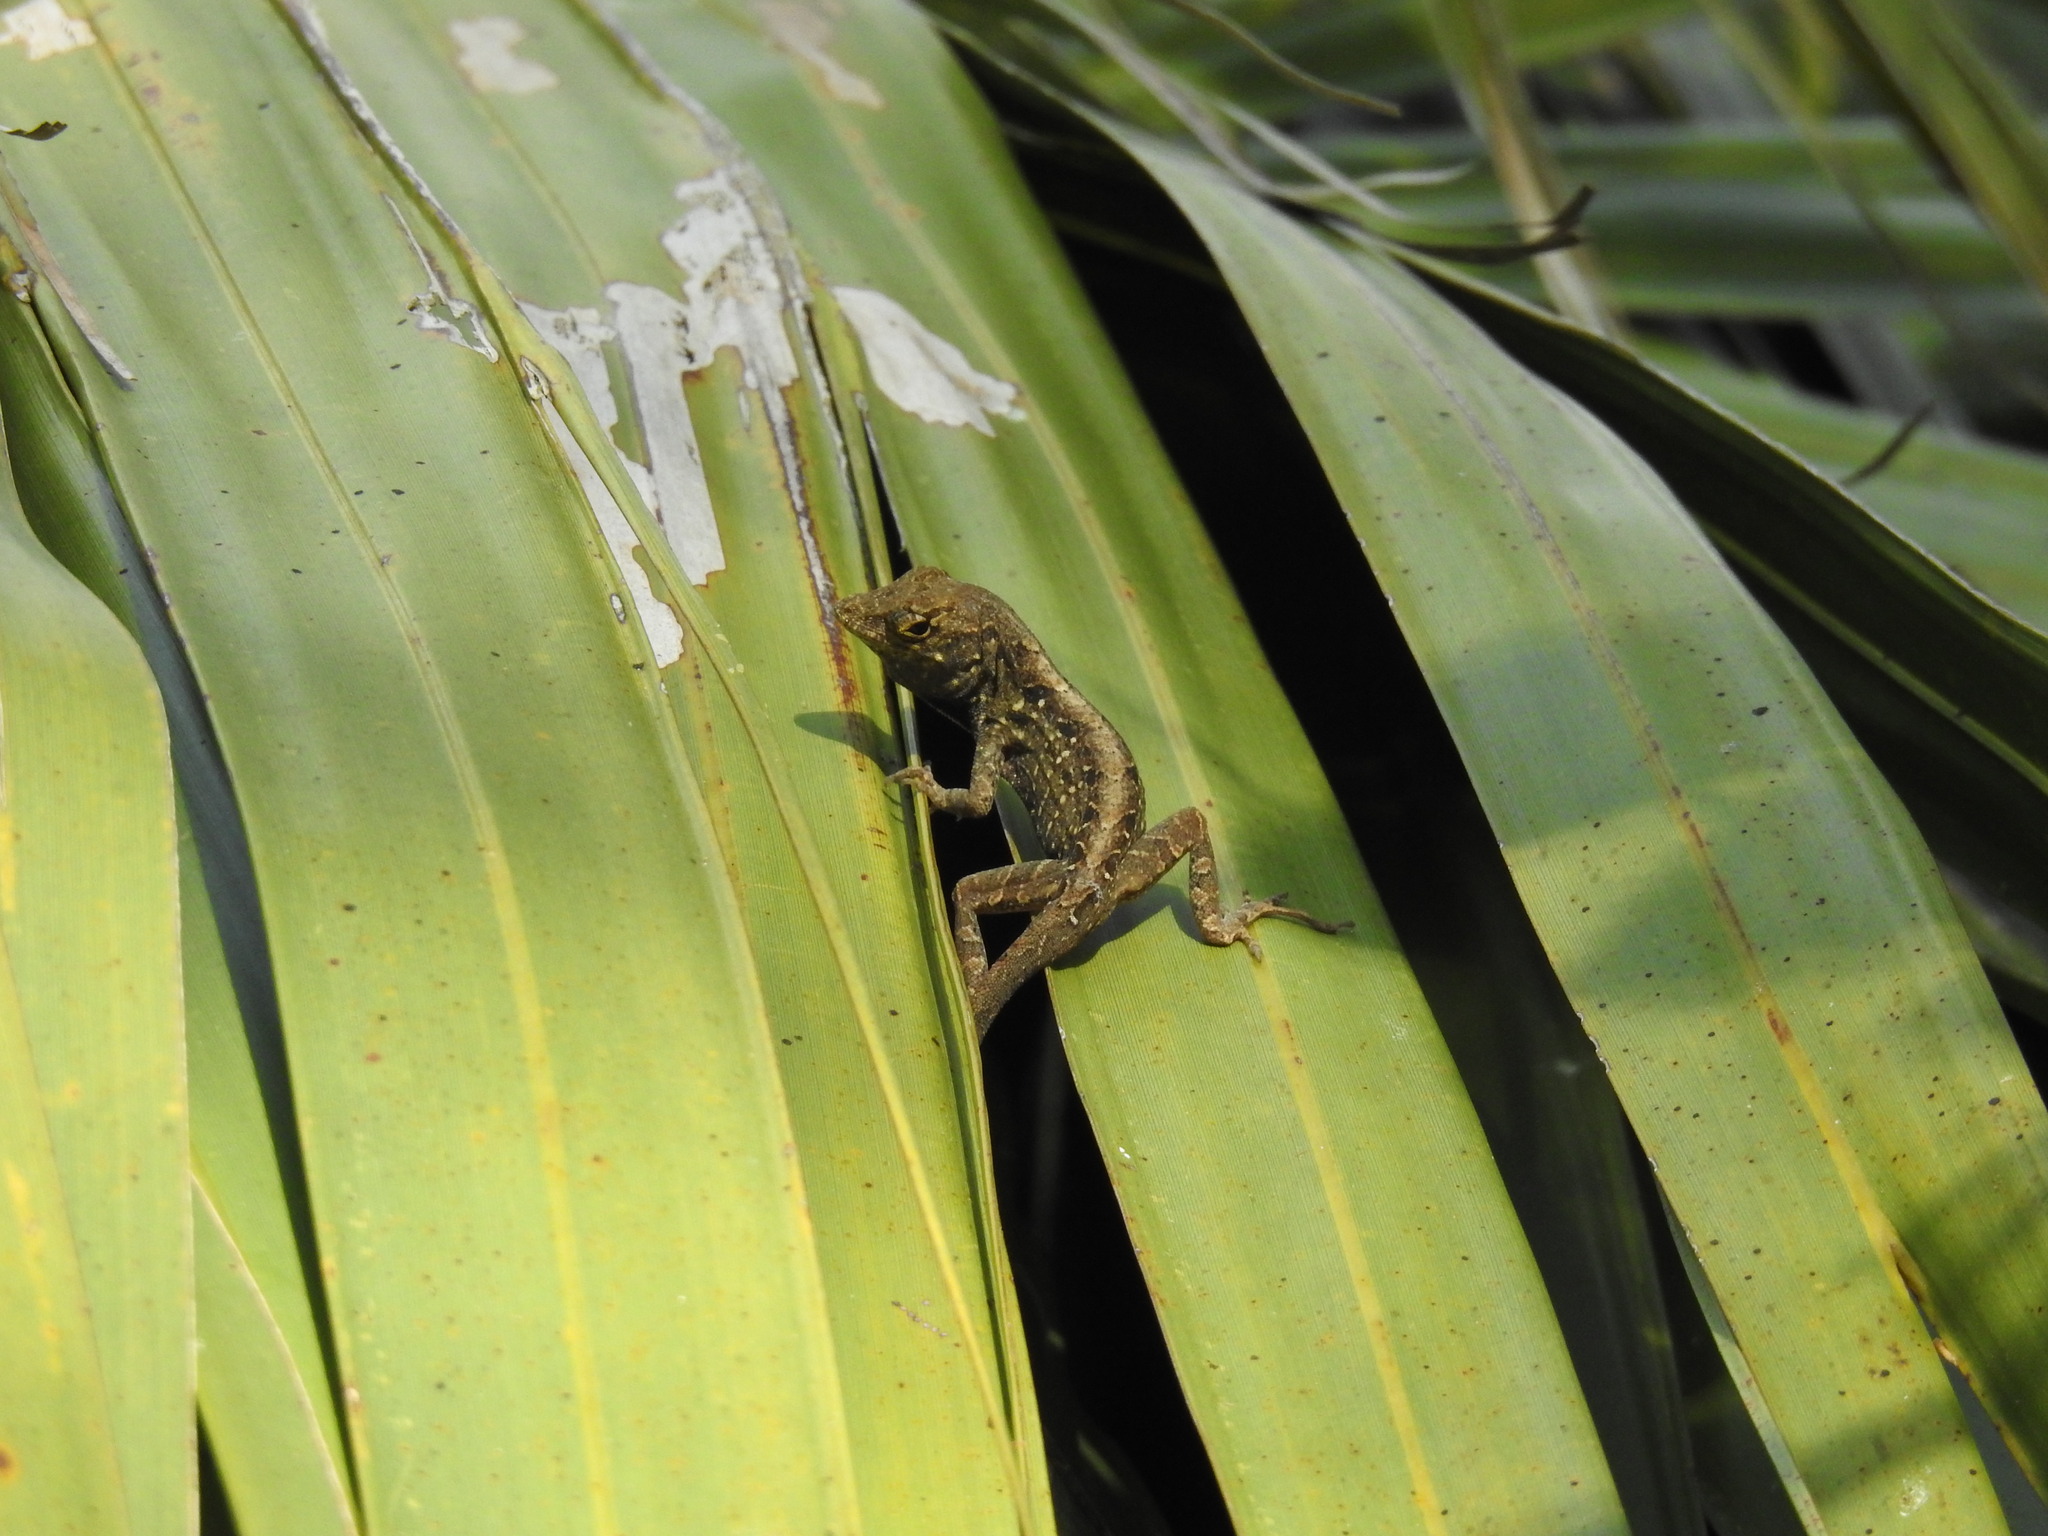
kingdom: Animalia
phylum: Chordata
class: Squamata
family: Dactyloidae
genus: Anolis
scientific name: Anolis sagrei
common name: Brown anole
